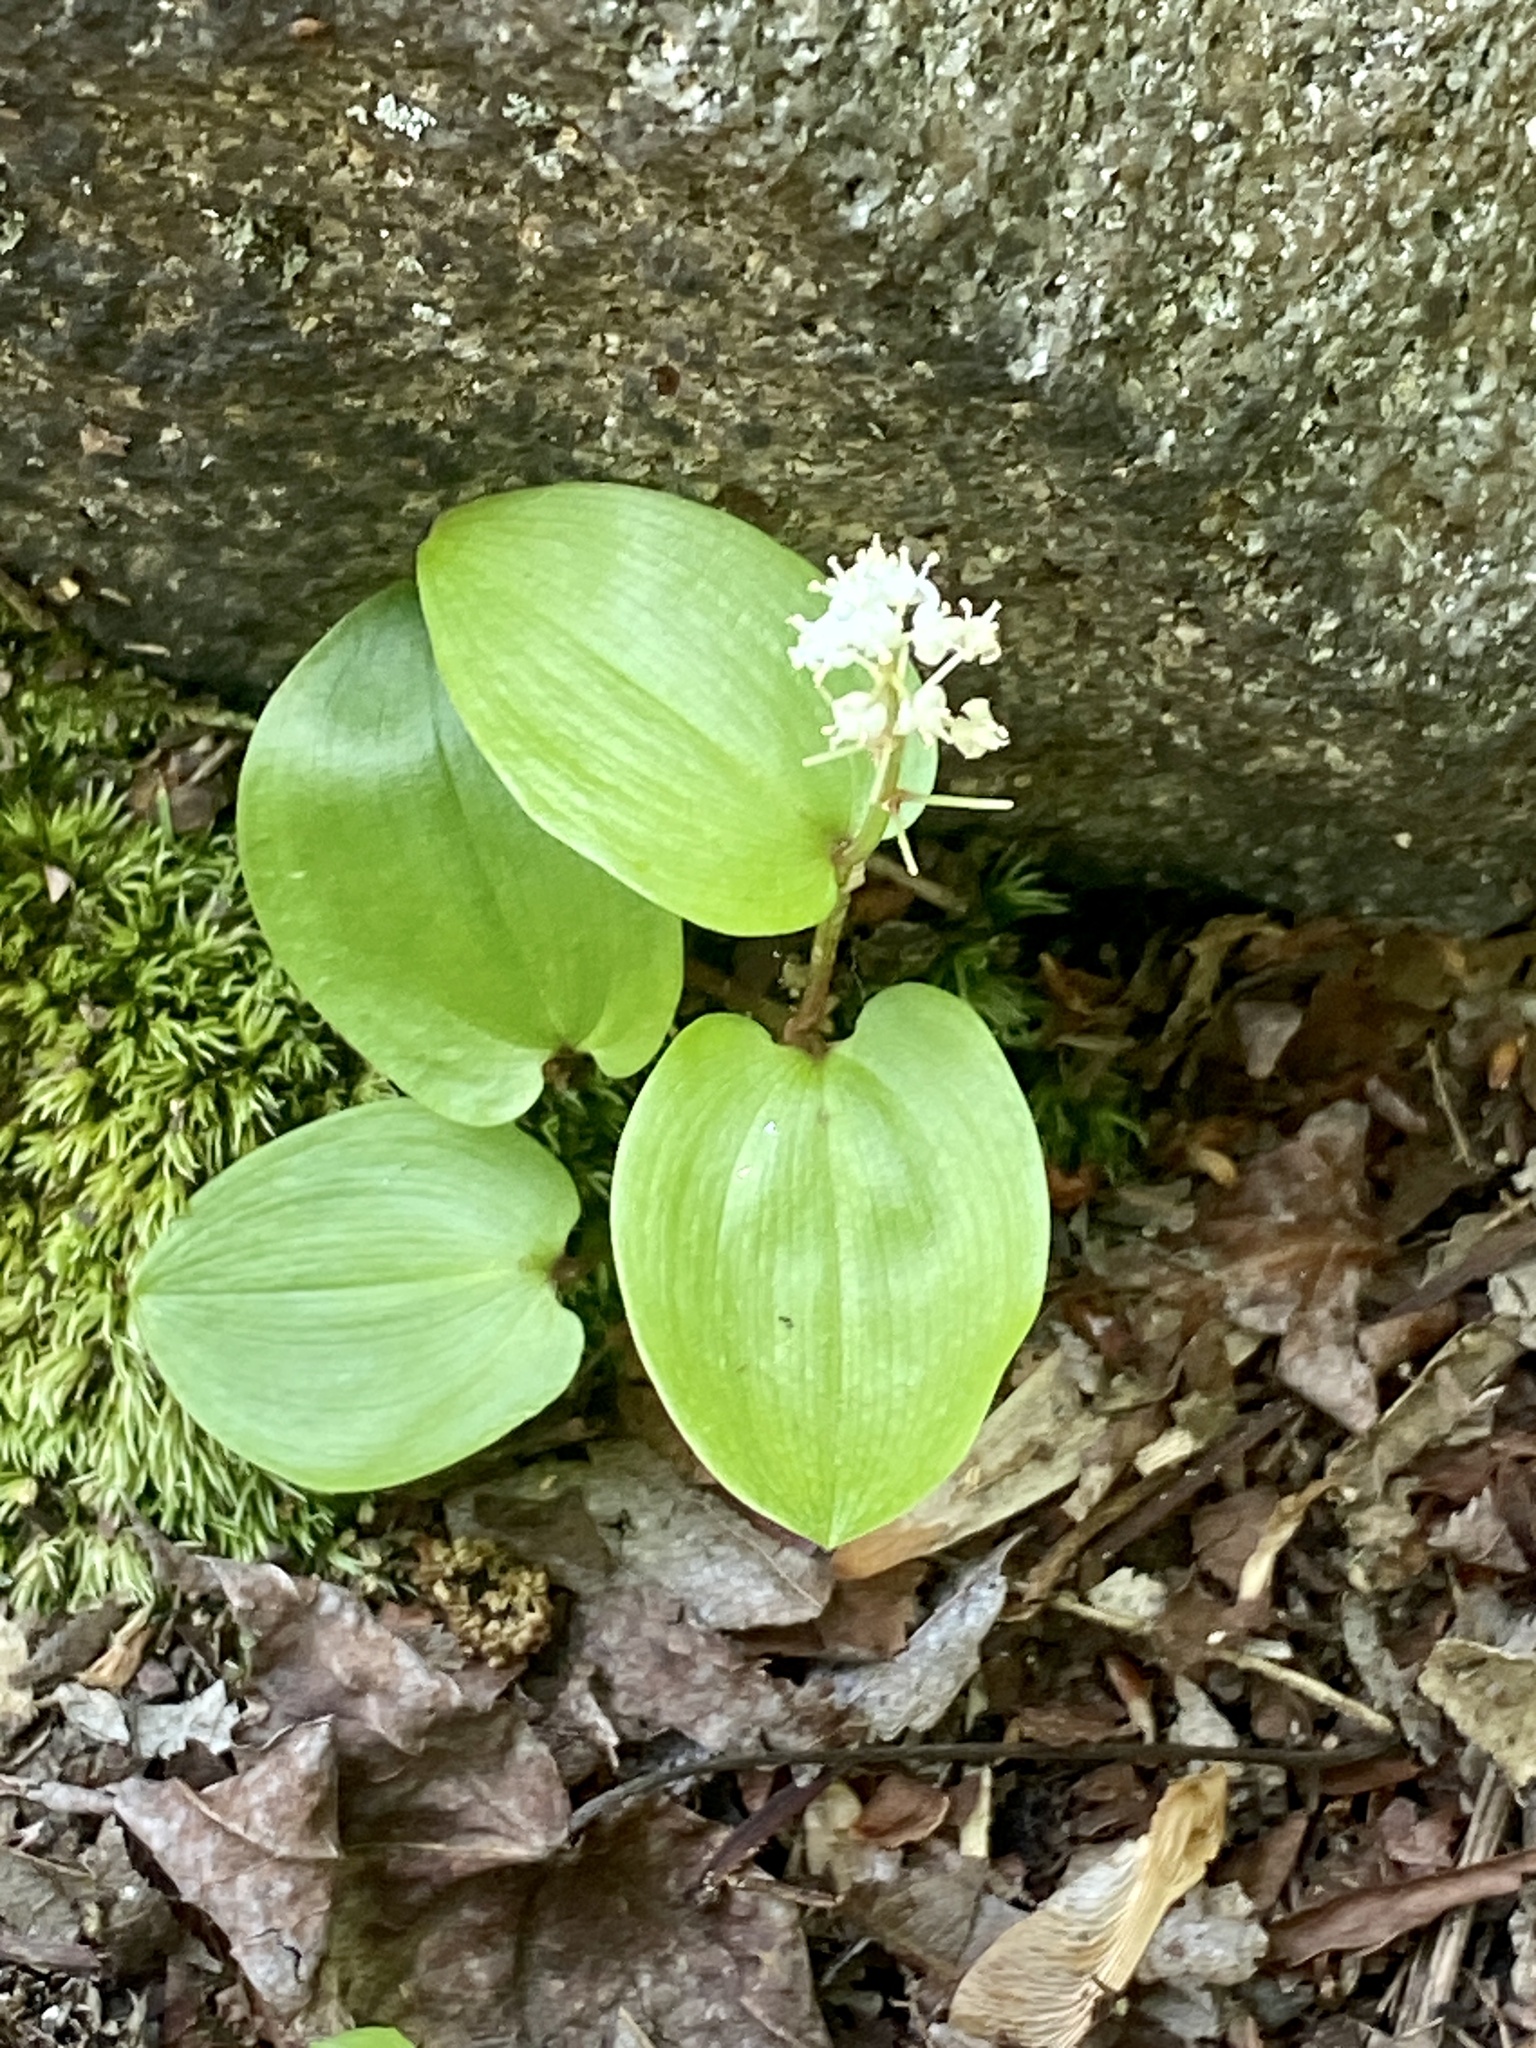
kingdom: Plantae
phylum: Tracheophyta
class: Liliopsida
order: Asparagales
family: Asparagaceae
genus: Maianthemum
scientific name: Maianthemum canadense
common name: False lily-of-the-valley
